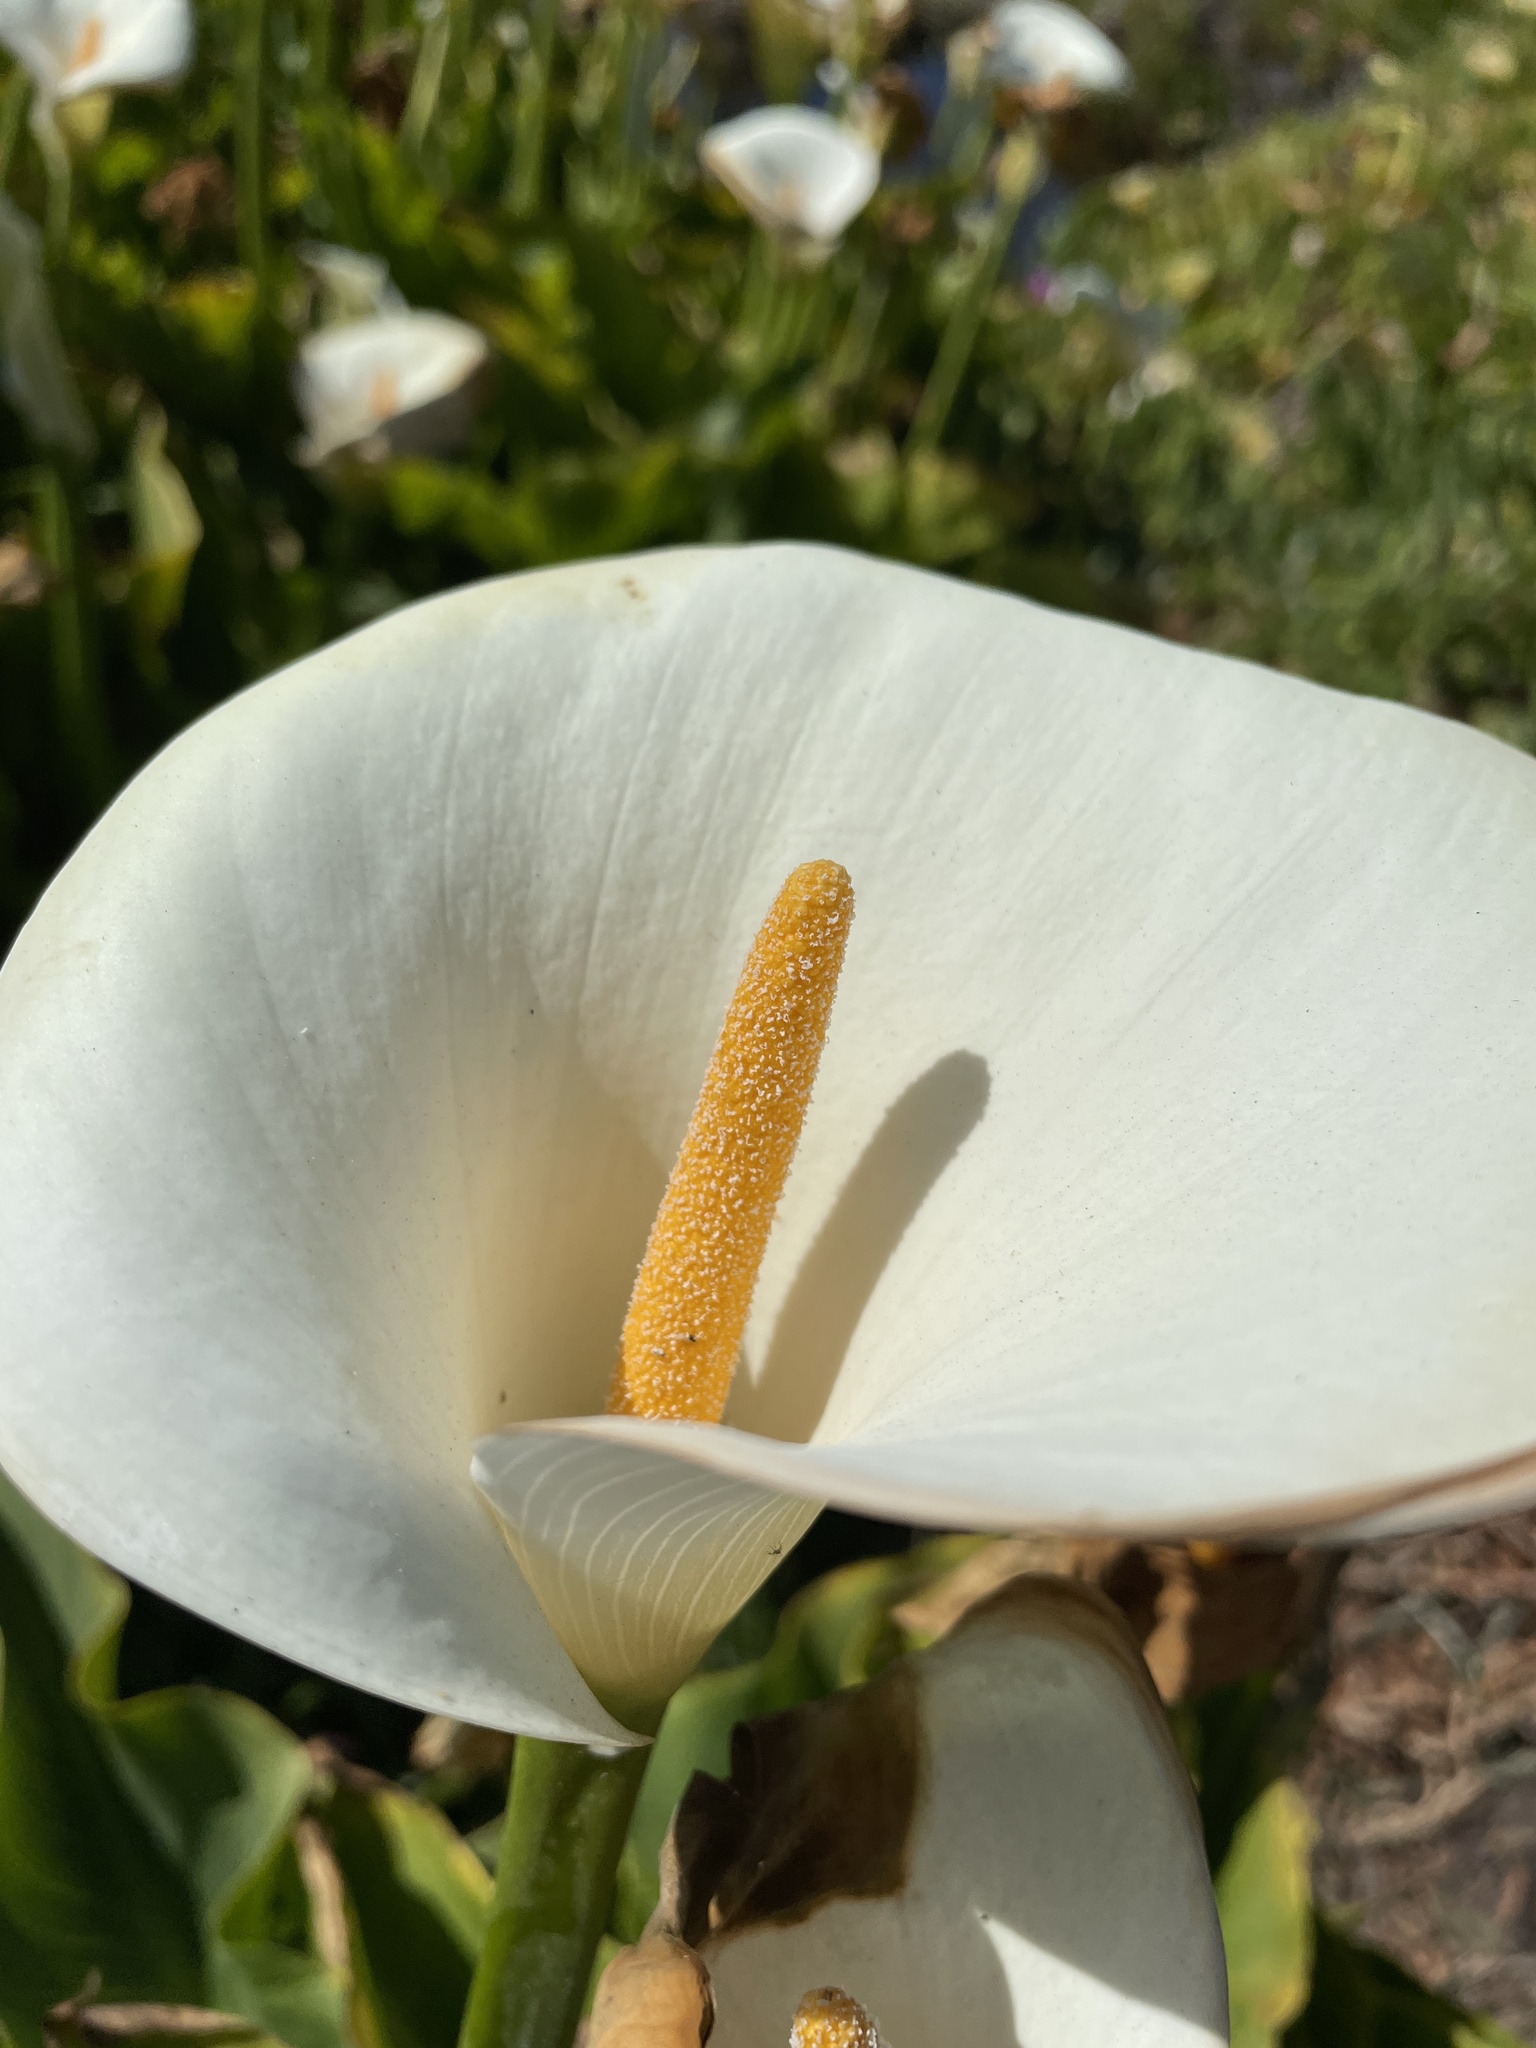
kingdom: Plantae
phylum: Tracheophyta
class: Liliopsida
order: Alismatales
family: Araceae
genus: Zantedeschia
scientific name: Zantedeschia aethiopica
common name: Altar-lily
